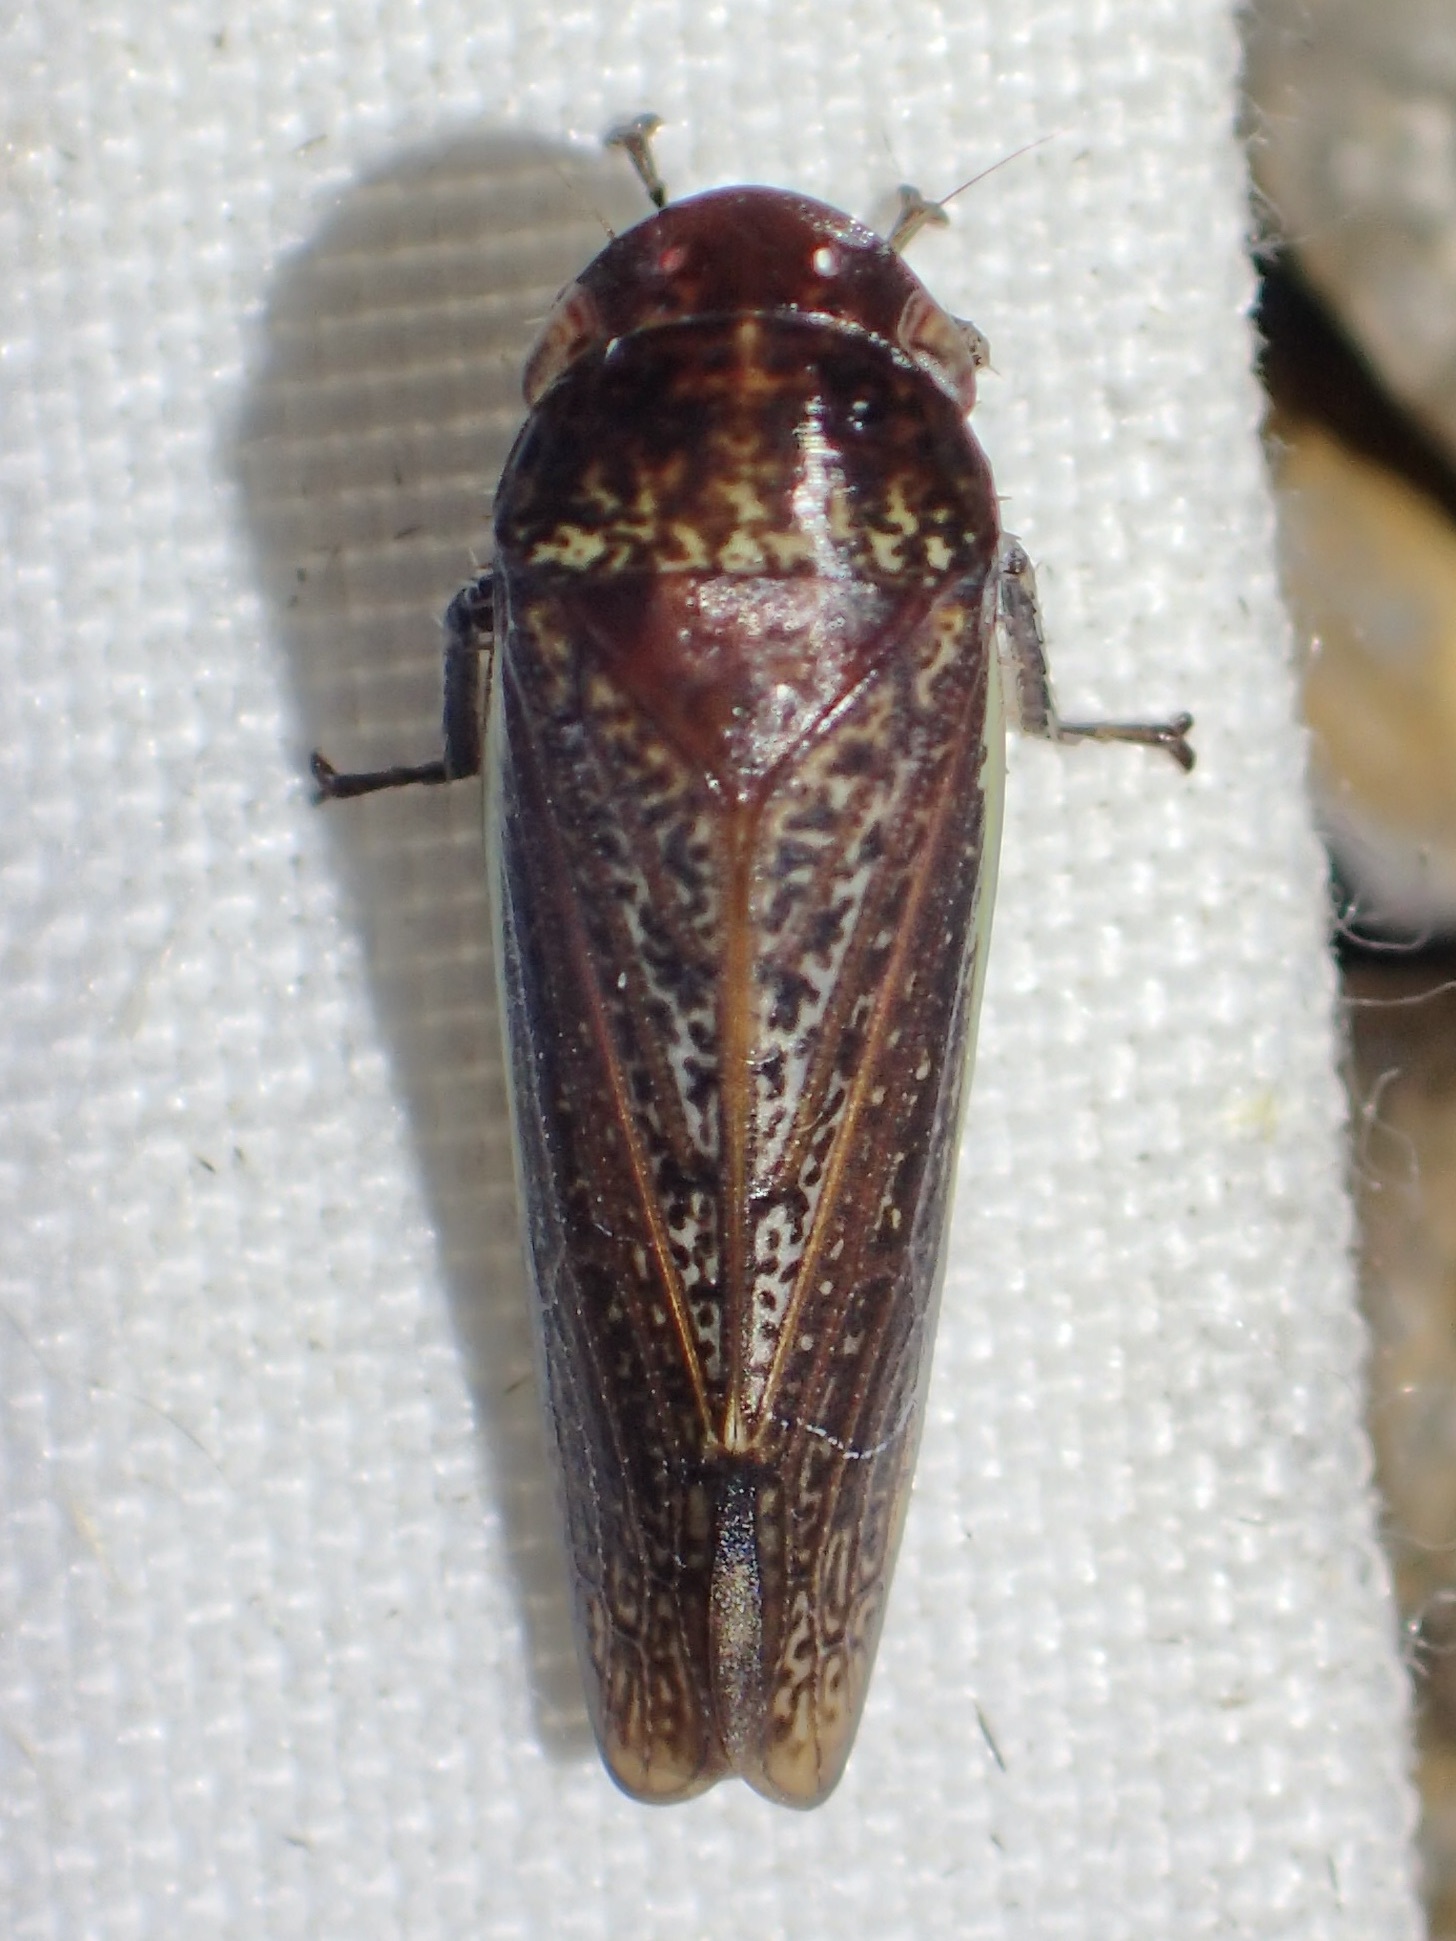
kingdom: Animalia
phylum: Arthropoda
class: Insecta
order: Hemiptera
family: Cicadellidae
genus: Hamana
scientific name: Hamana gelbata
